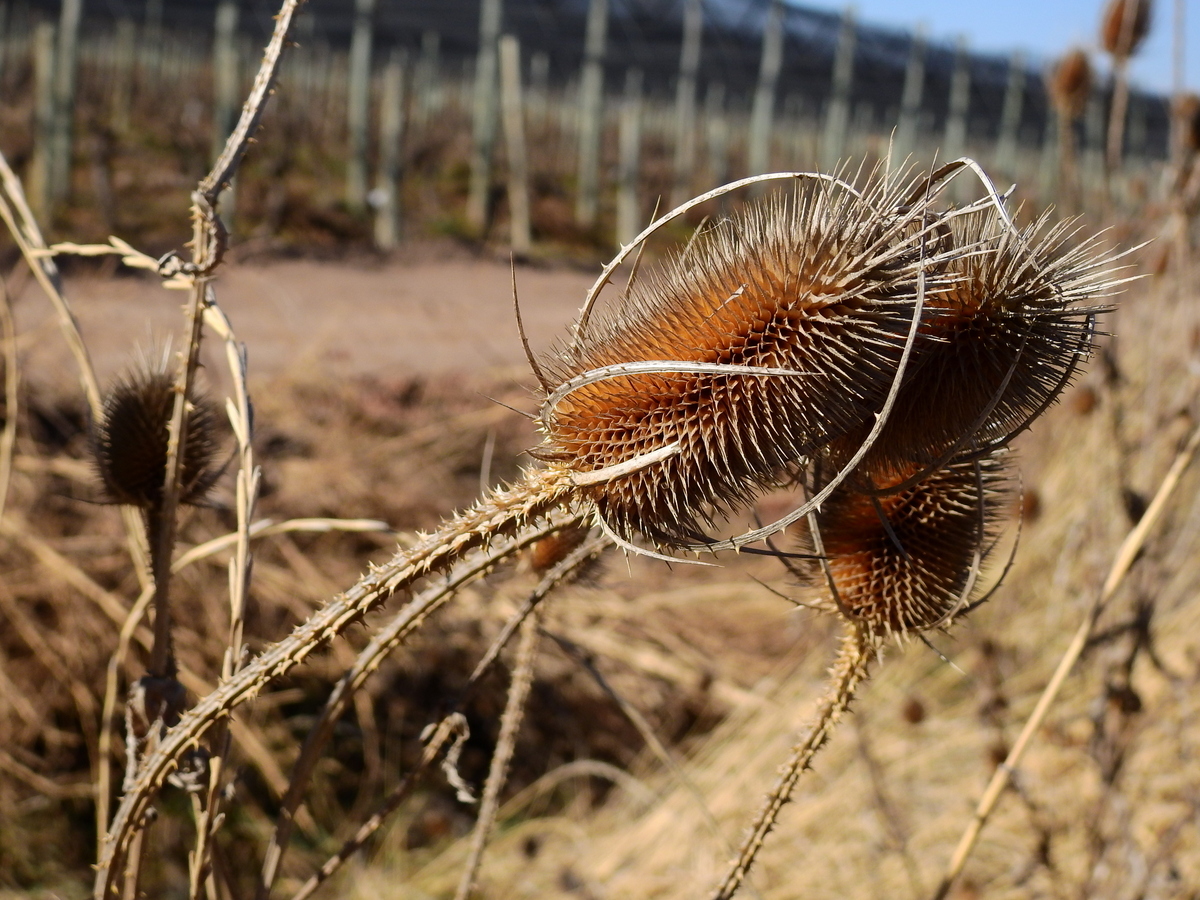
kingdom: Plantae
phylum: Tracheophyta
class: Magnoliopsida
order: Dipsacales
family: Caprifoliaceae
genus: Dipsacus
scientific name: Dipsacus fullonum
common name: Teasel
